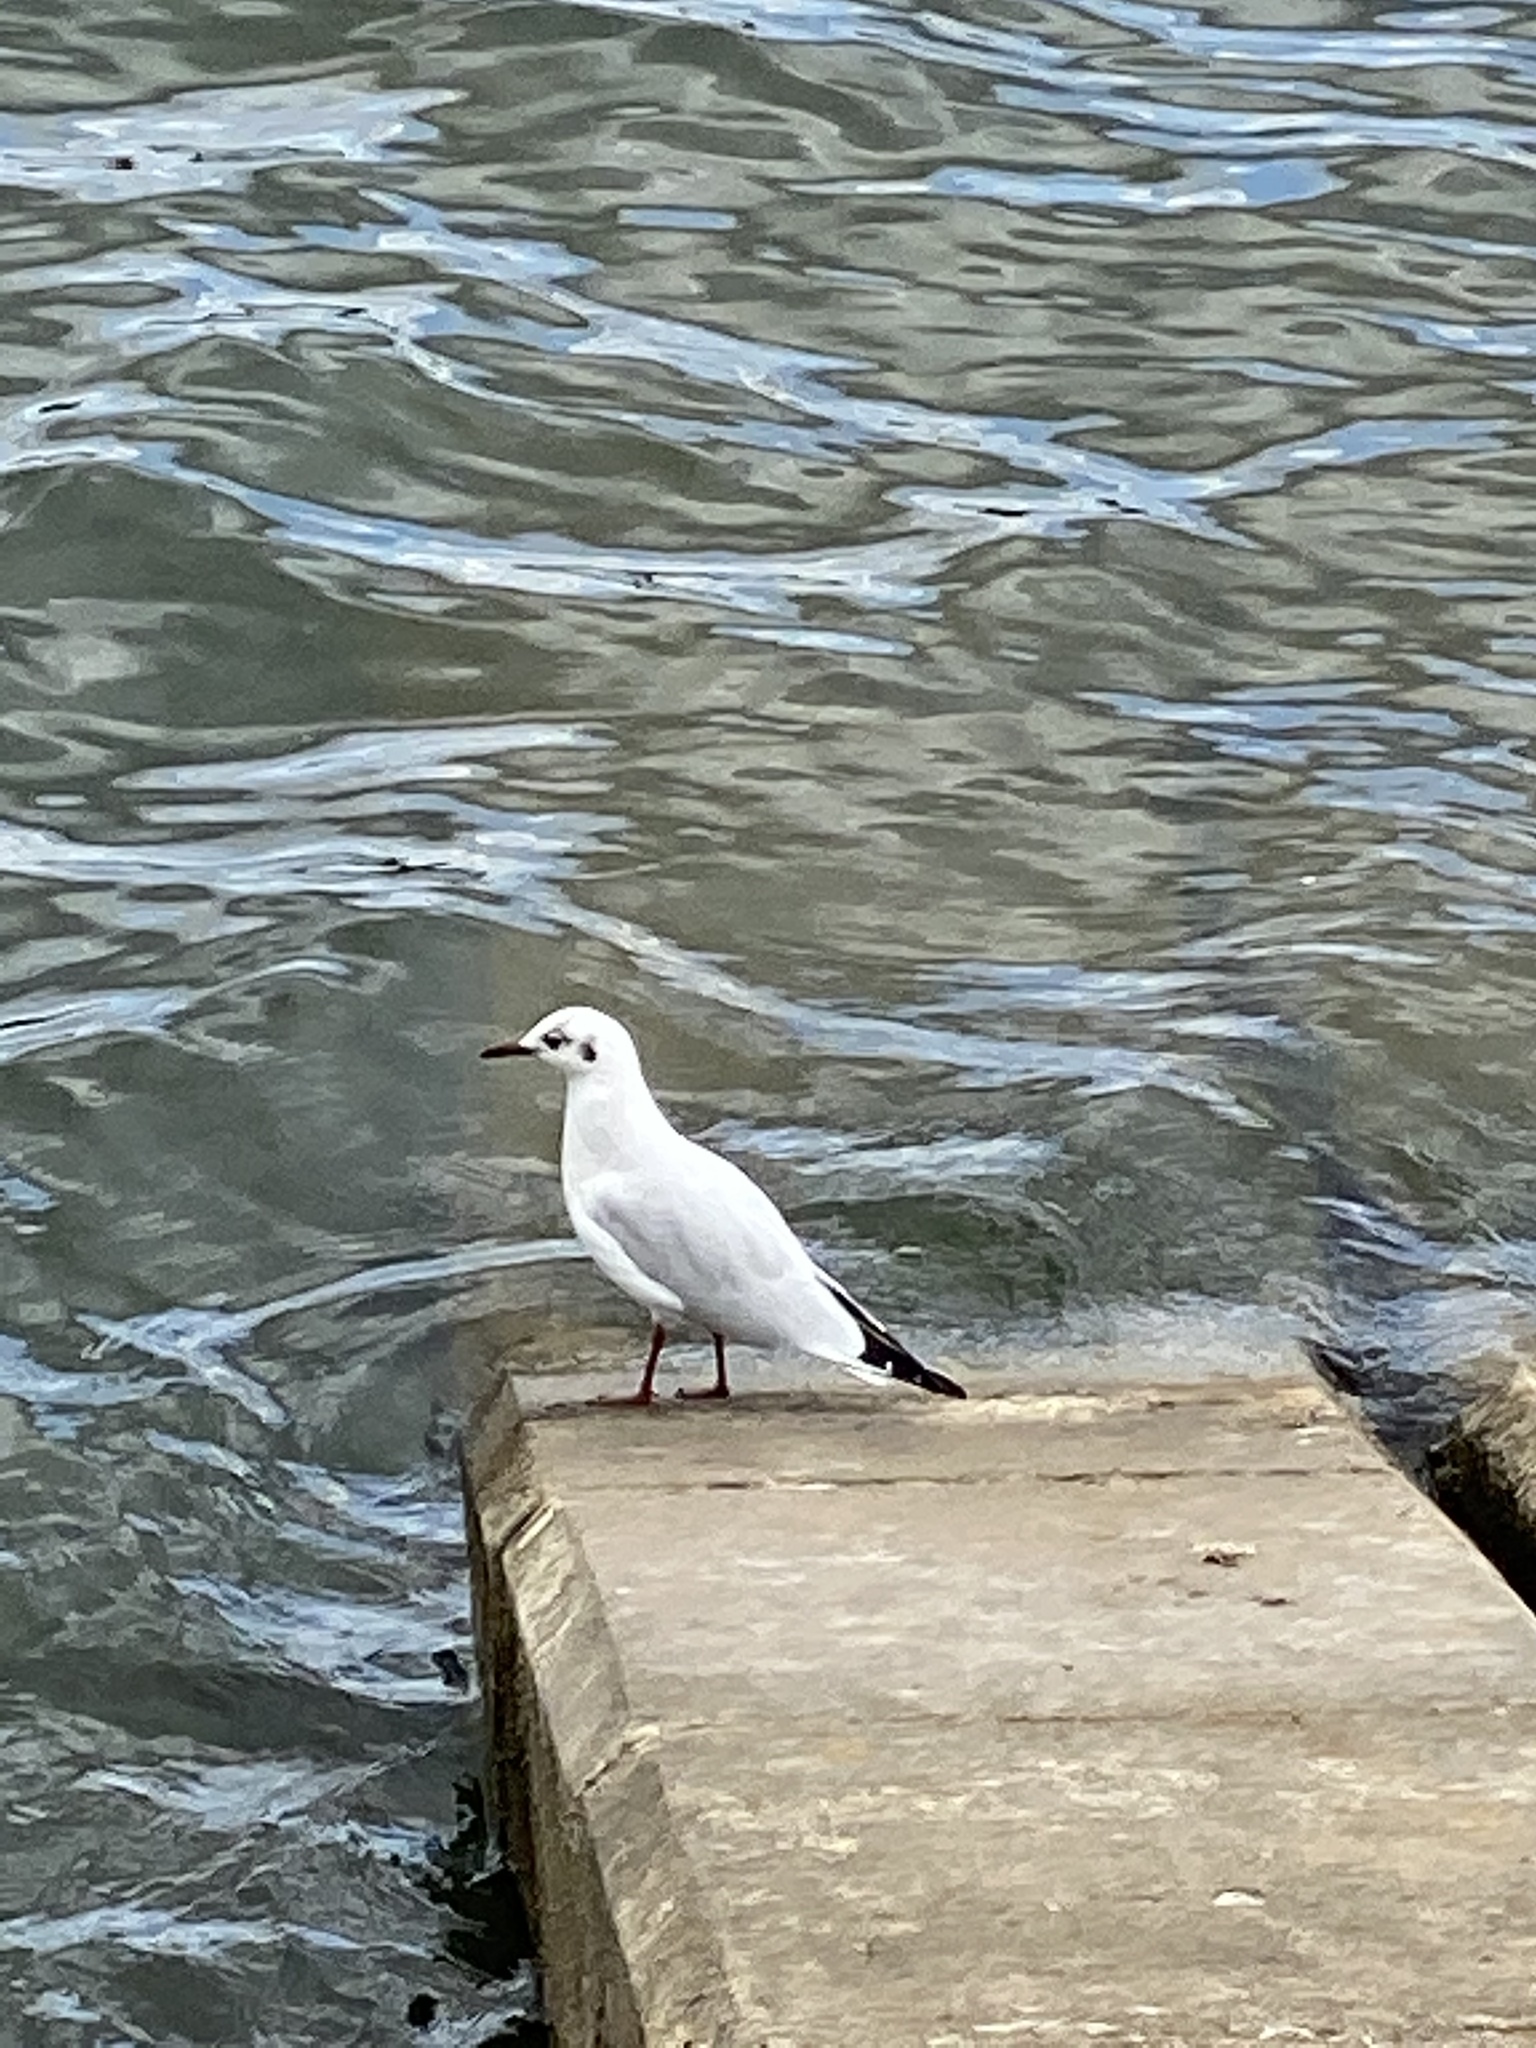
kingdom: Animalia
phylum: Chordata
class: Aves
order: Charadriiformes
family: Laridae
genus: Chroicocephalus
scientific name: Chroicocephalus ridibundus
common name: Black-headed gull
